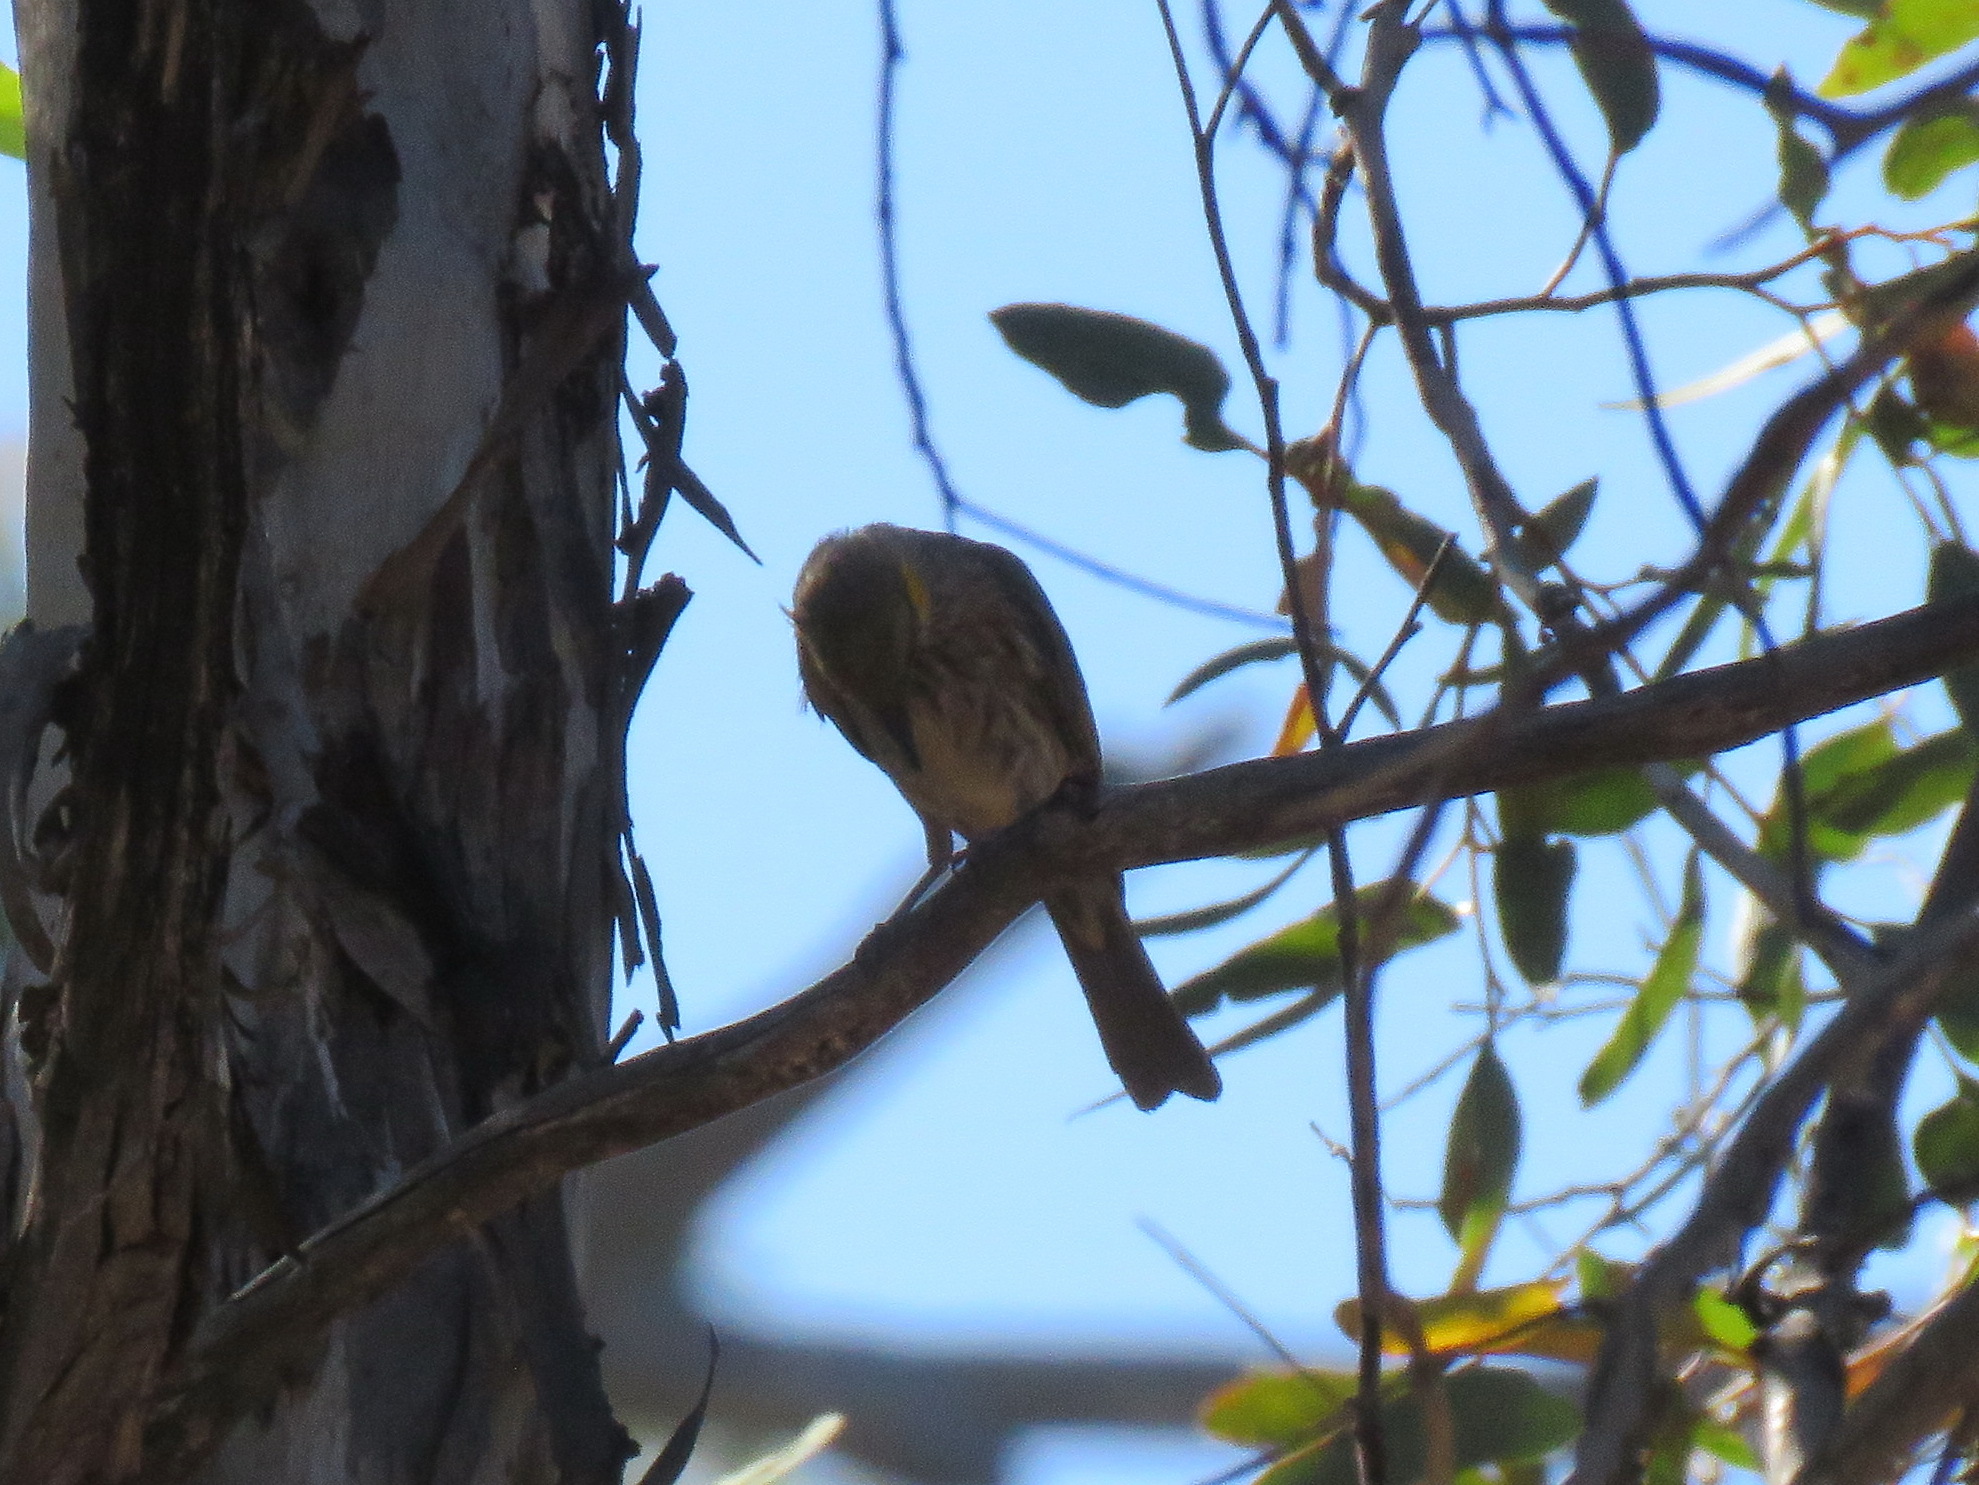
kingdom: Animalia
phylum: Chordata
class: Aves
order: Passeriformes
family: Meliphagidae
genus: Ptilotula
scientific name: Ptilotula ornata
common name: Yellow-plumed honeyeater
